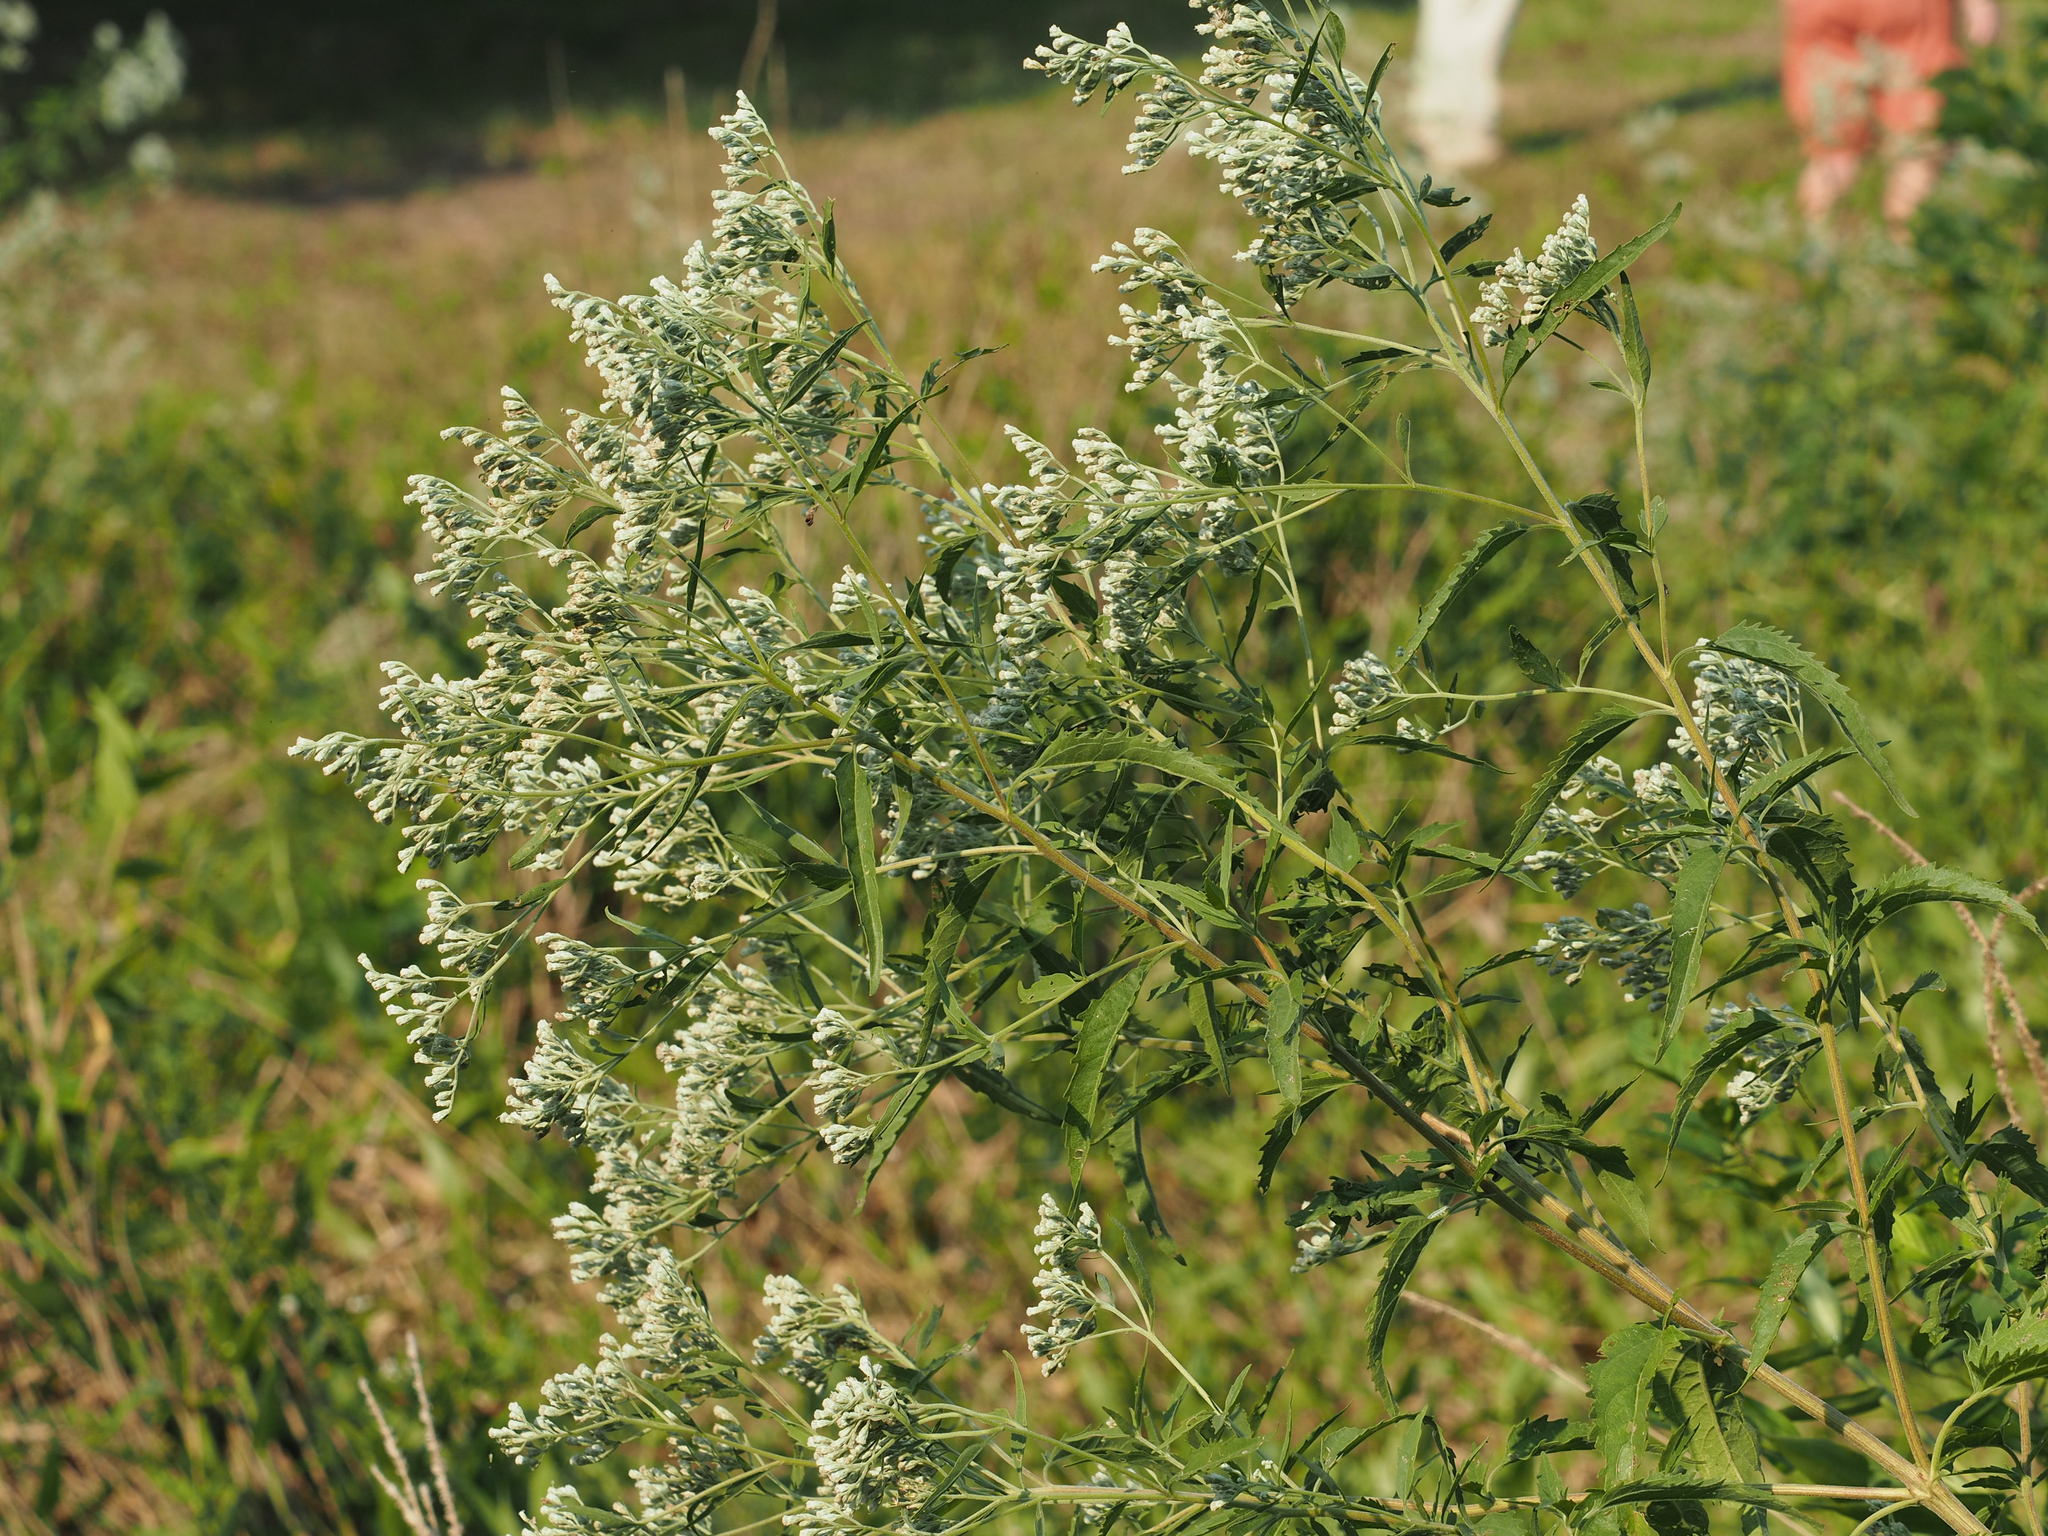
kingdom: Plantae
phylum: Tracheophyta
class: Magnoliopsida
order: Asterales
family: Asteraceae
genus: Eupatorium
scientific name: Eupatorium serotinum
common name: Late boneset
